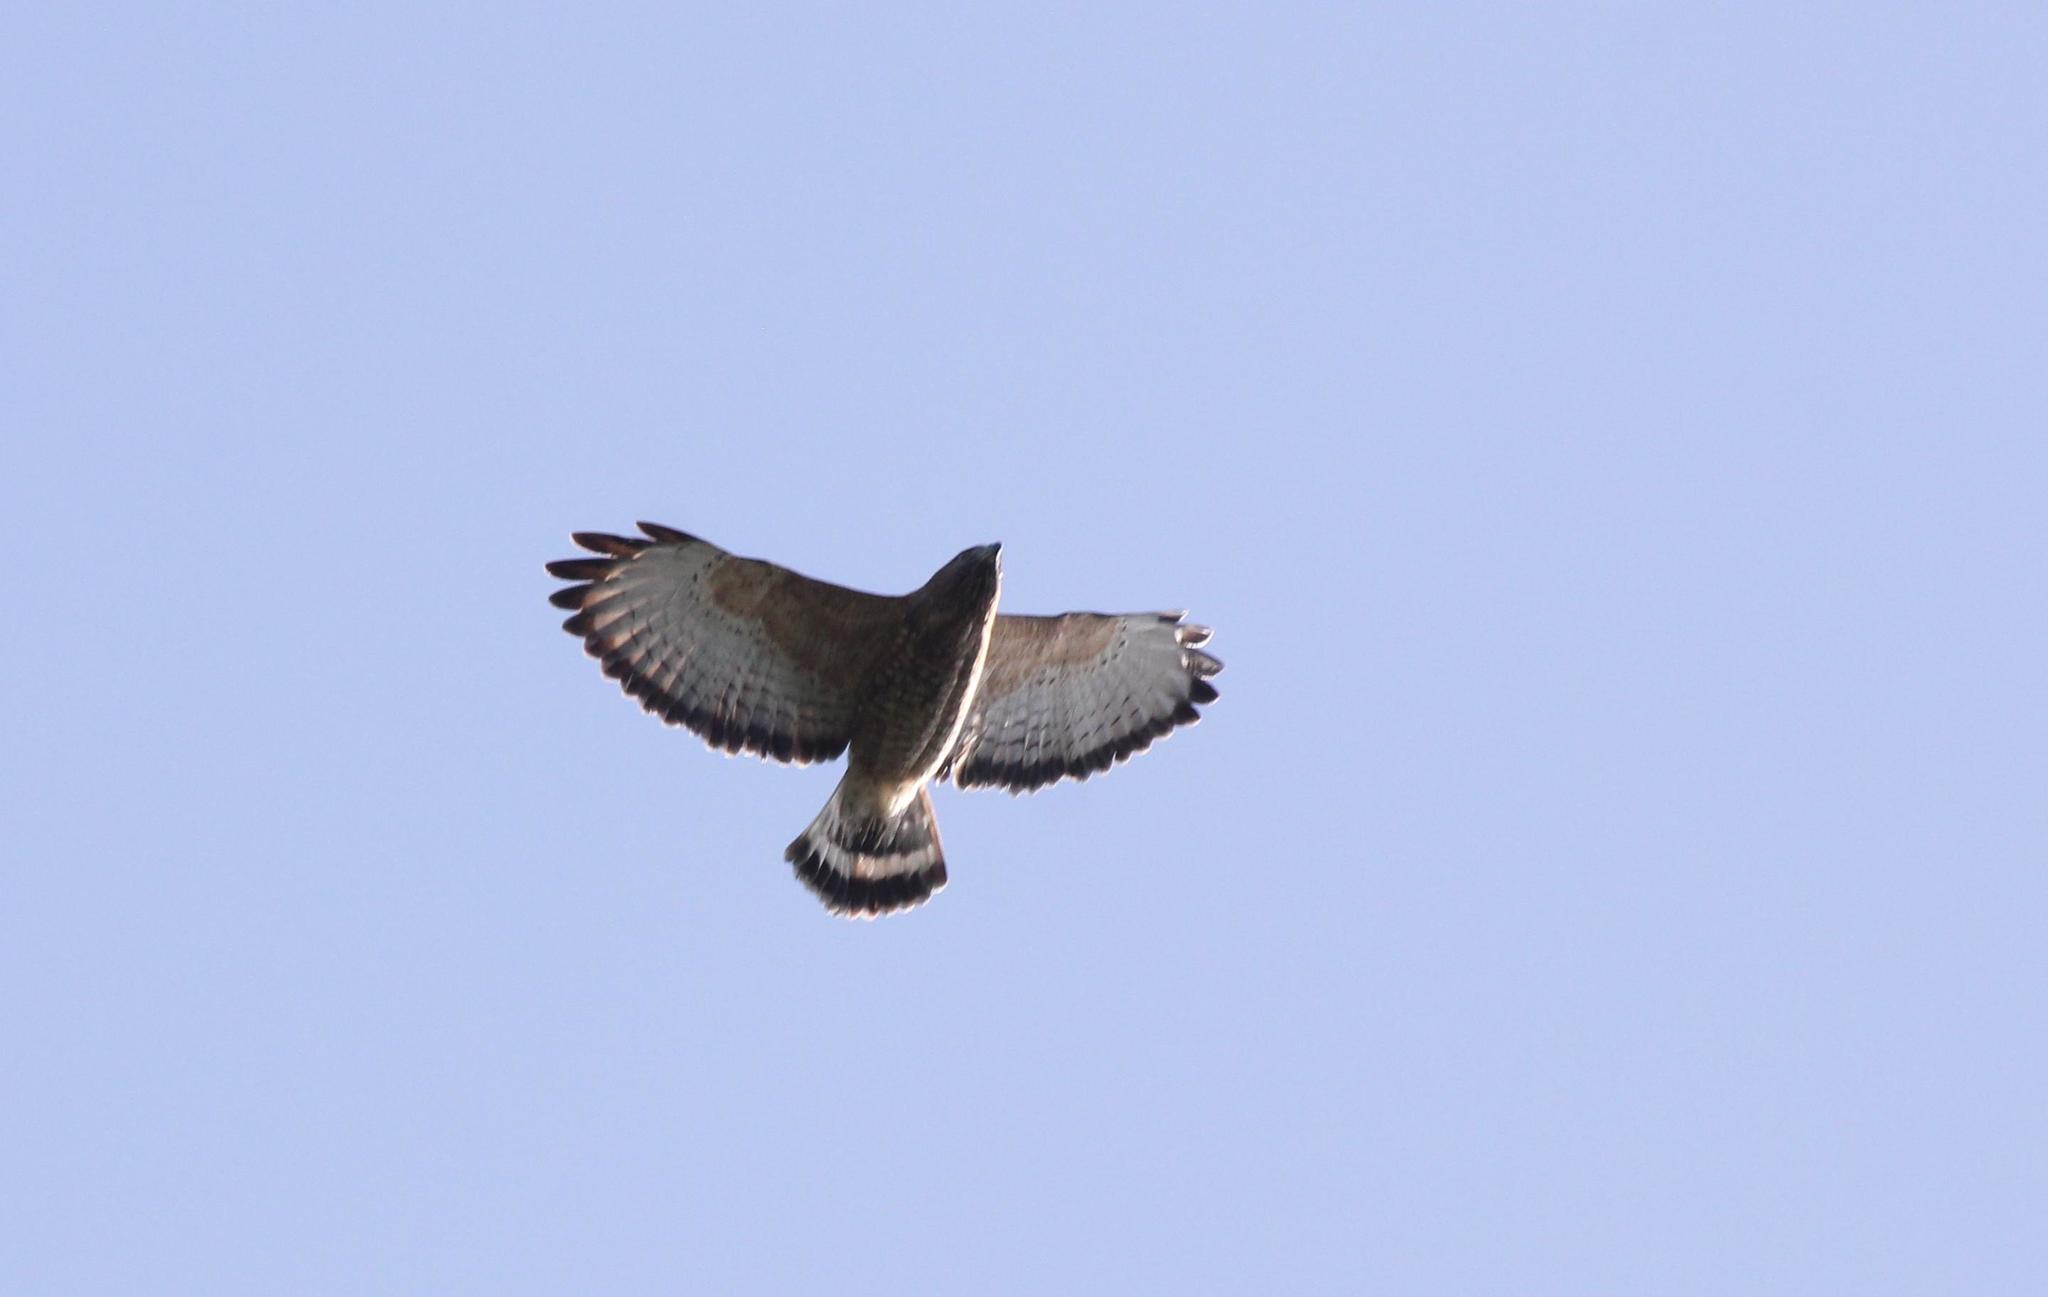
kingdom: Animalia
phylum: Chordata
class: Aves
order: Accipitriformes
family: Accipitridae
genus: Buteo
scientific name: Buteo platypterus
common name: Broad-winged hawk
